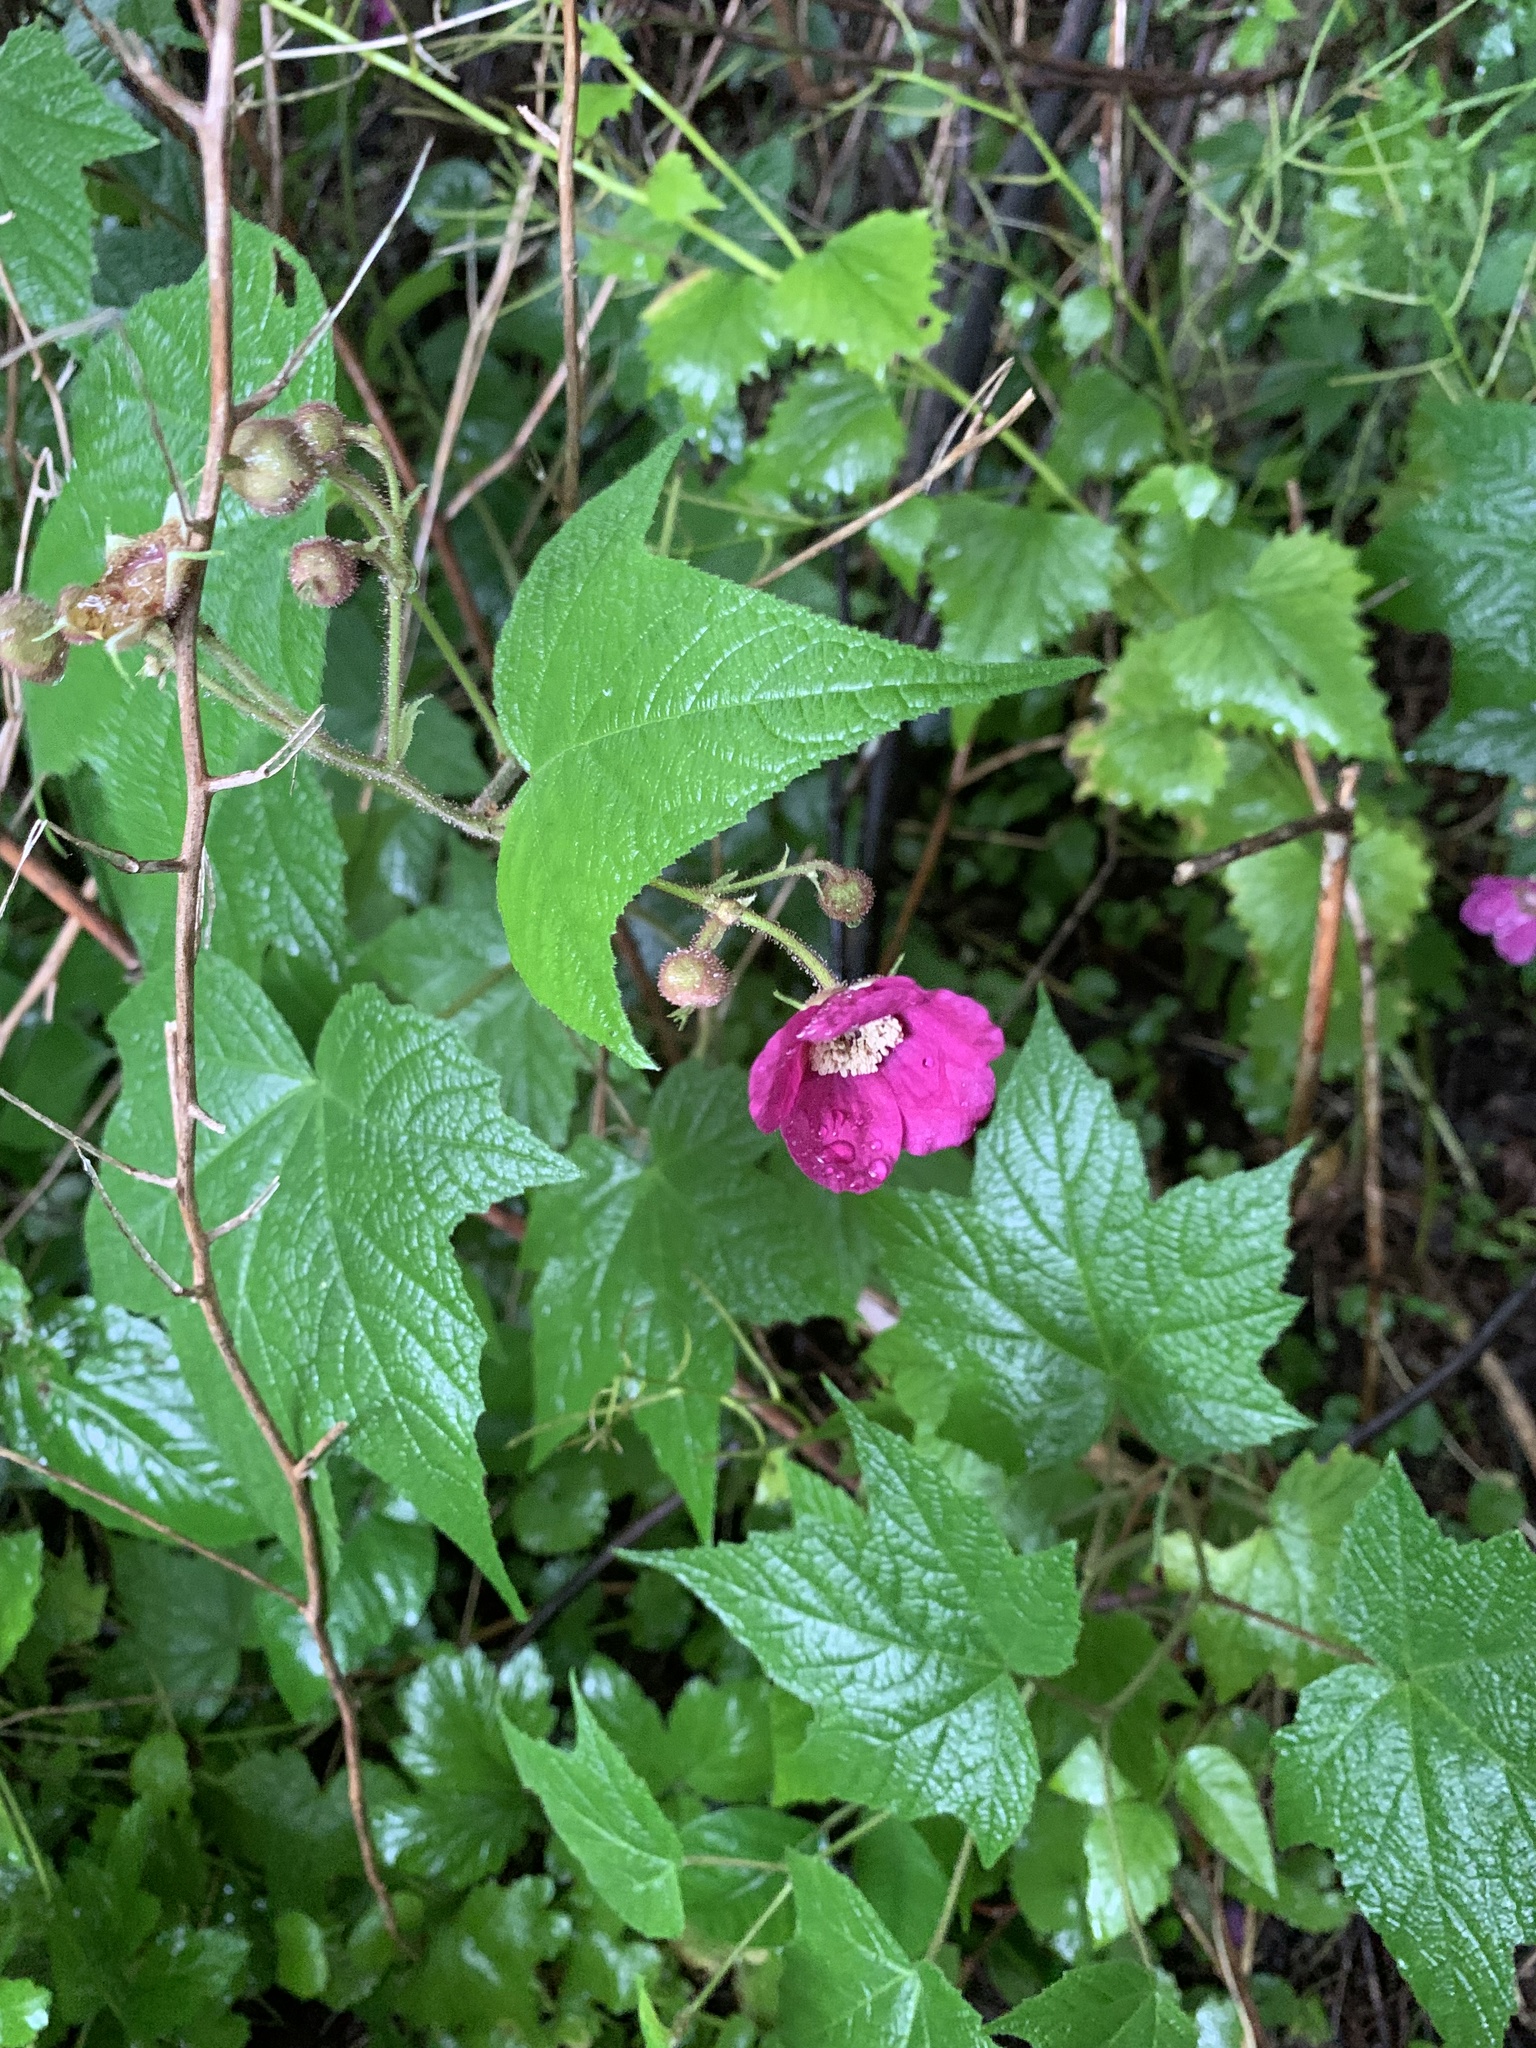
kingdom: Plantae
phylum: Tracheophyta
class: Magnoliopsida
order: Rosales
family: Rosaceae
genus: Rubus
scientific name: Rubus odoratus
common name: Purple-flowered raspberry
